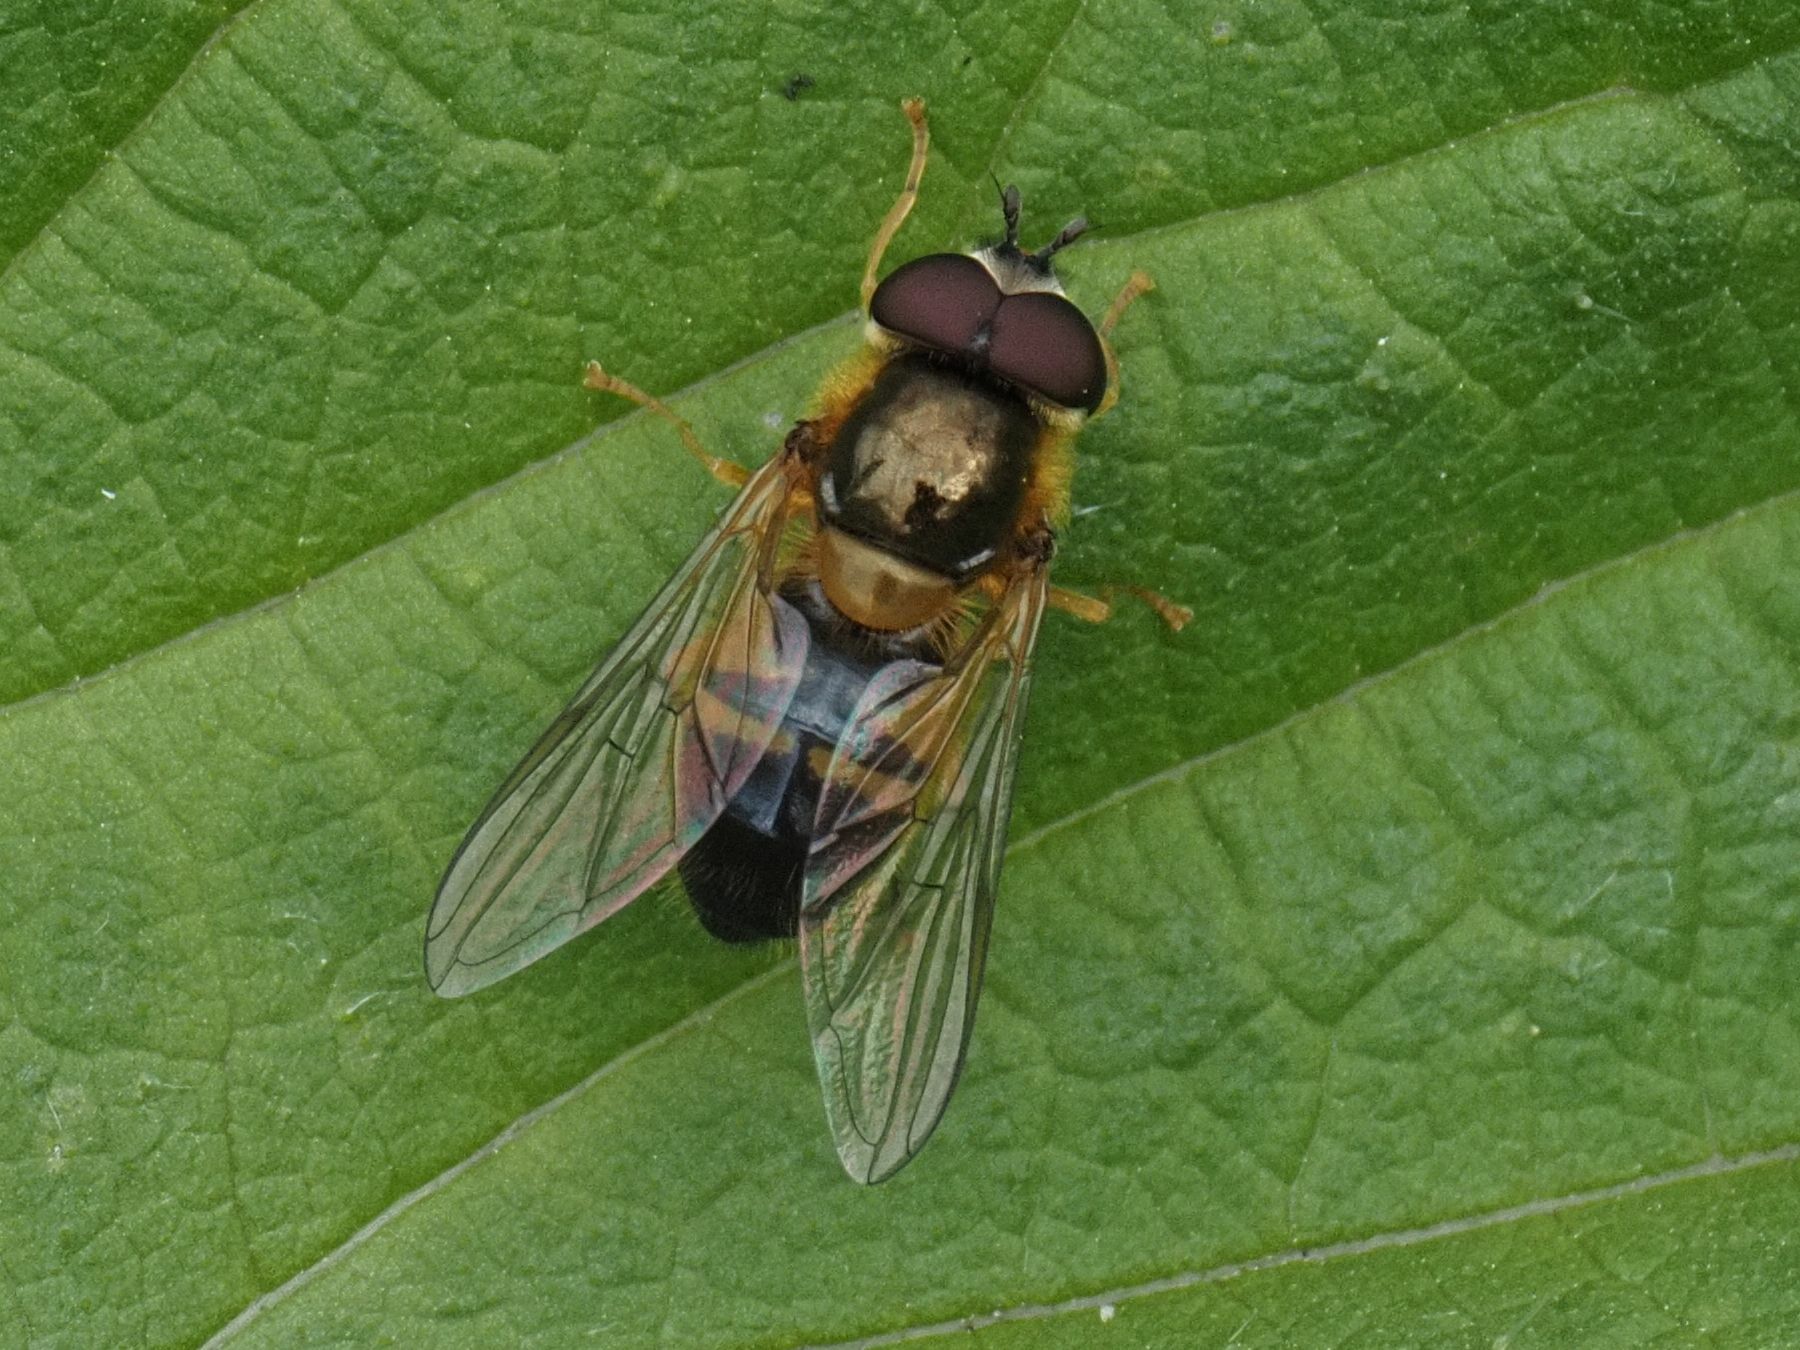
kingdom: Animalia
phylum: Arthropoda
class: Insecta
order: Diptera
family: Syrphidae
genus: Epistrophe
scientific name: Epistrophe eligans
